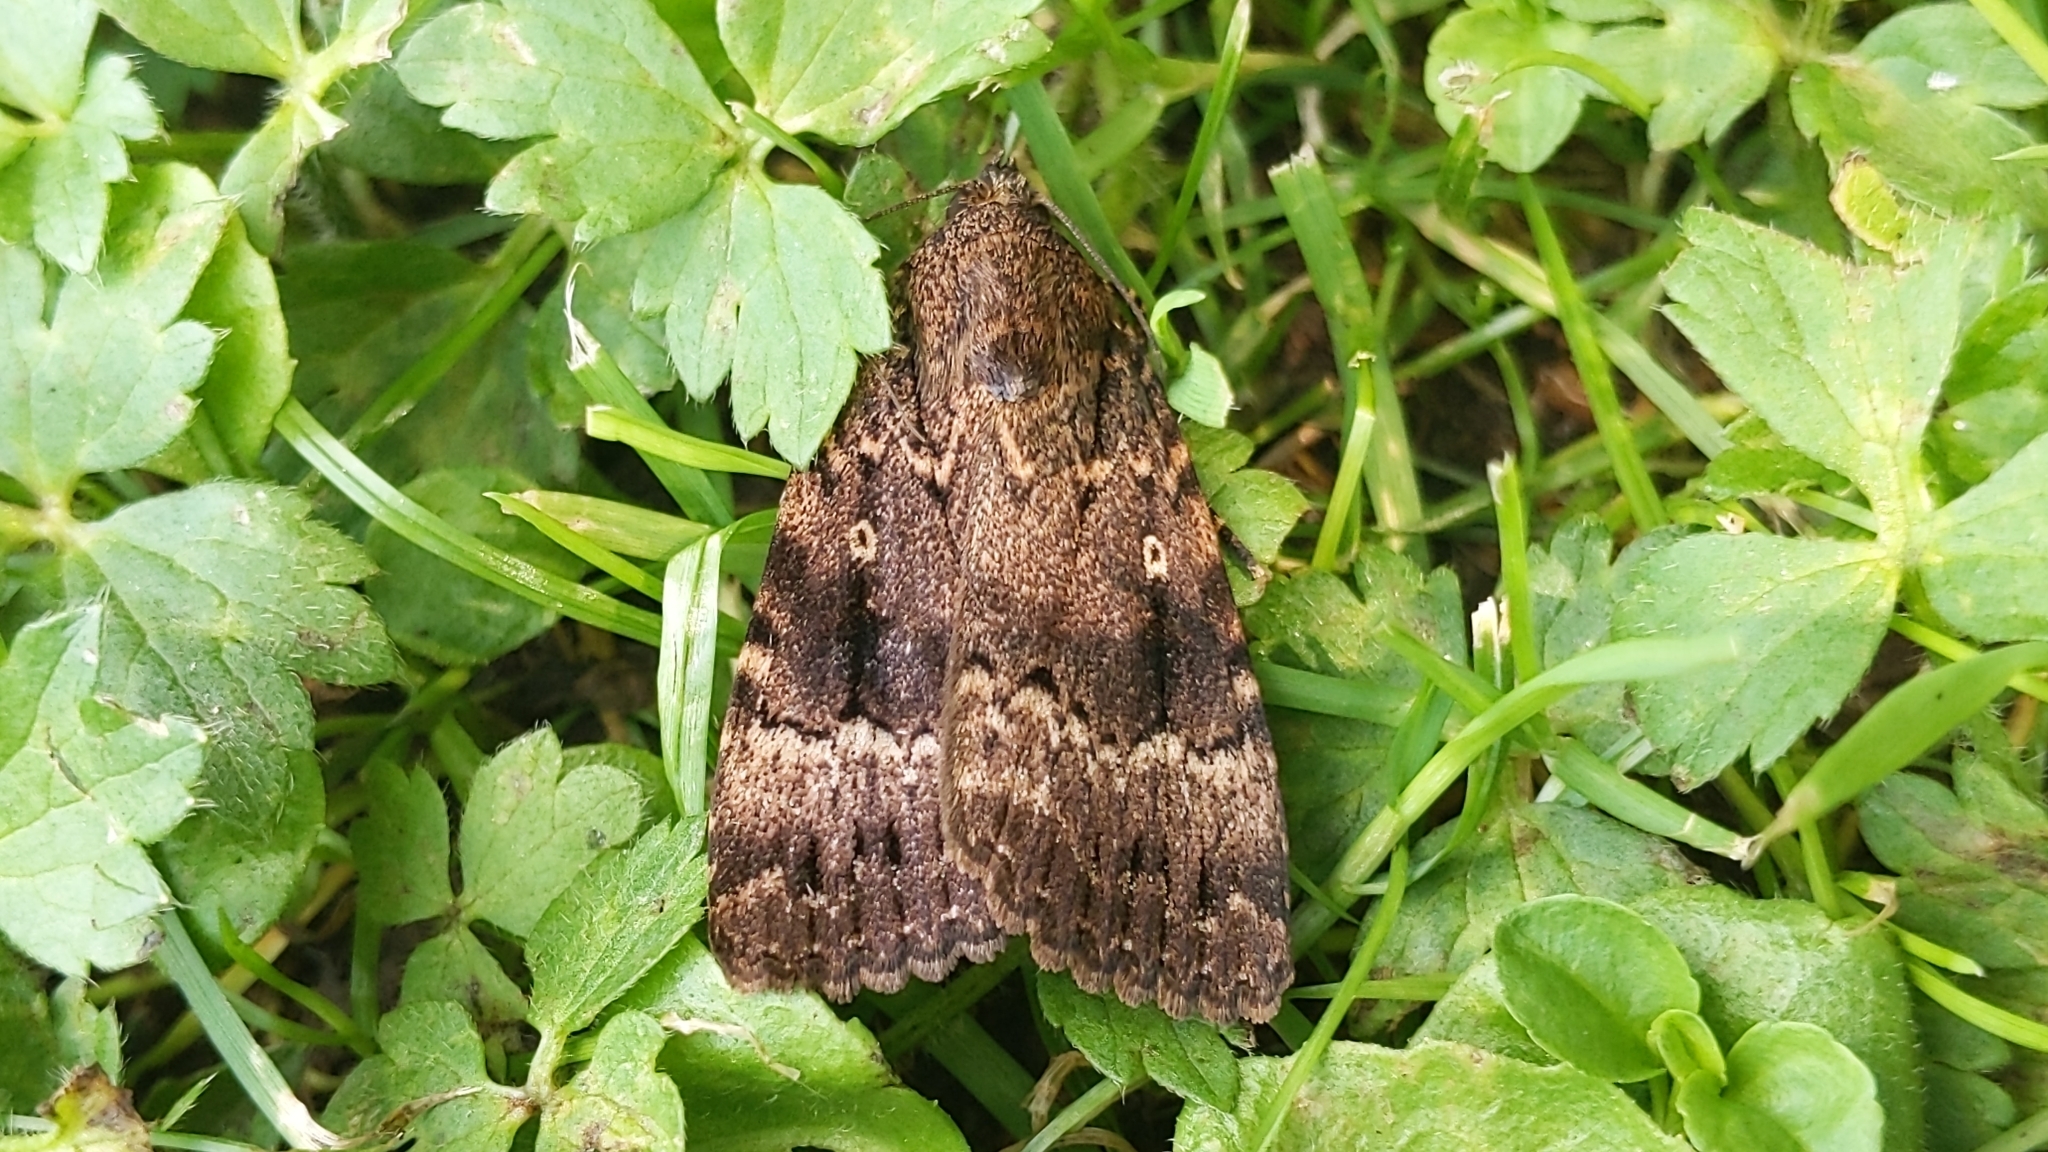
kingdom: Animalia
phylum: Arthropoda
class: Insecta
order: Lepidoptera
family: Noctuidae
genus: Amphipyra
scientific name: Amphipyra pyramidea
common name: Copper underwing
